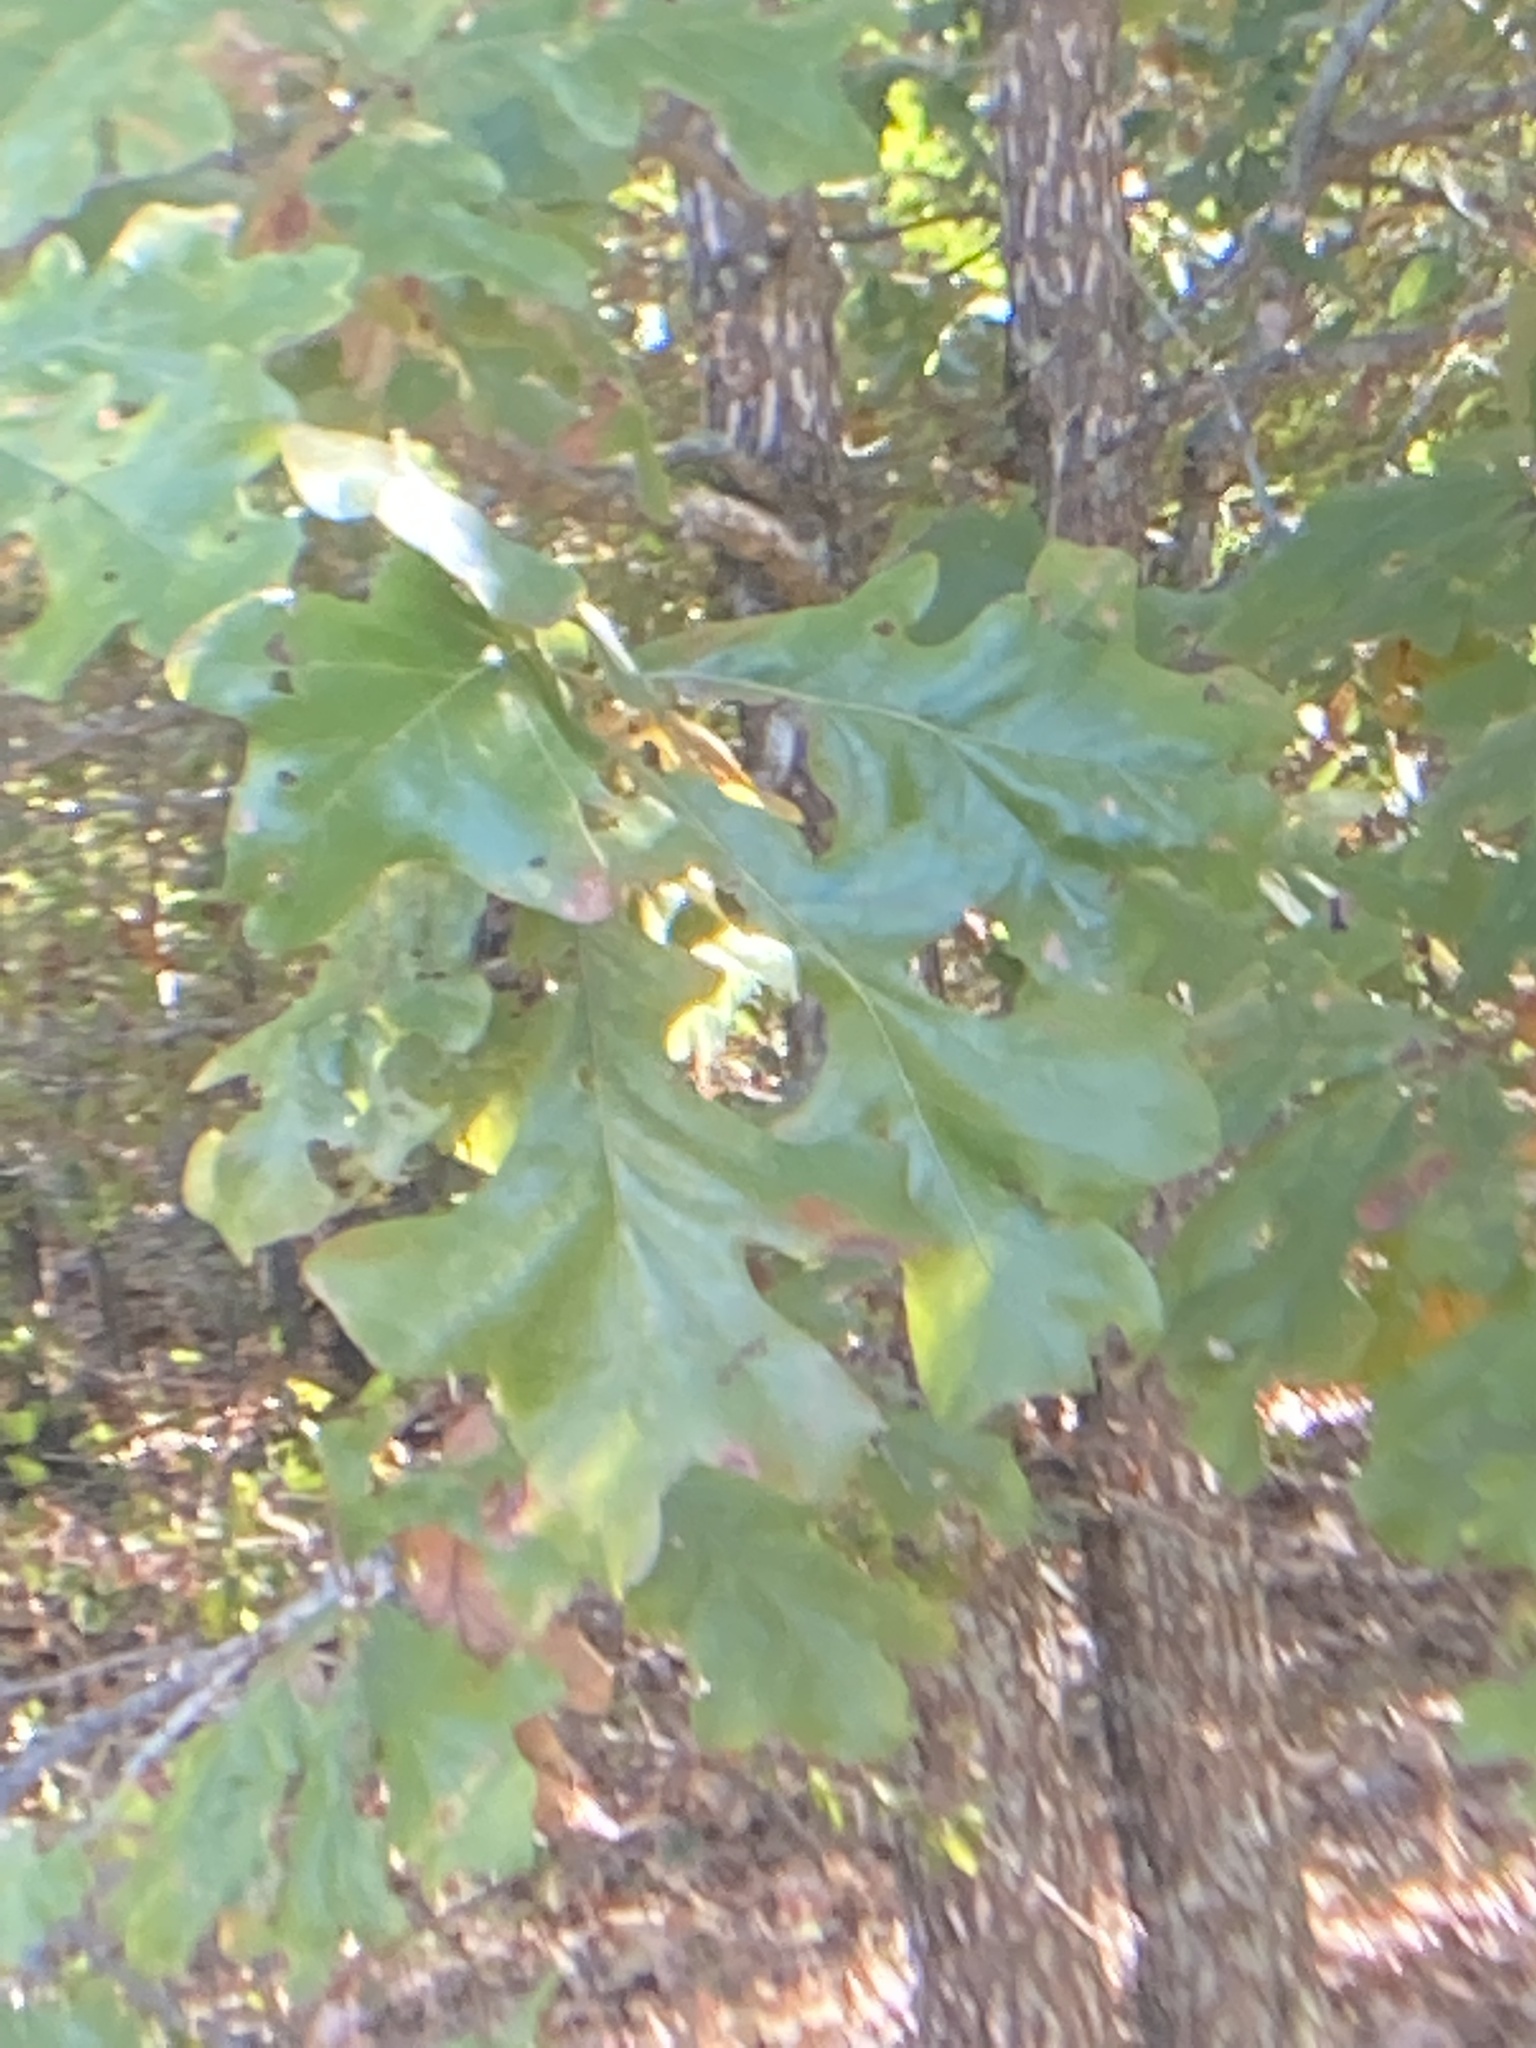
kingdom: Plantae
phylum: Tracheophyta
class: Magnoliopsida
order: Fagales
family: Fagaceae
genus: Quercus
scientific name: Quercus stellata
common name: Post oak
